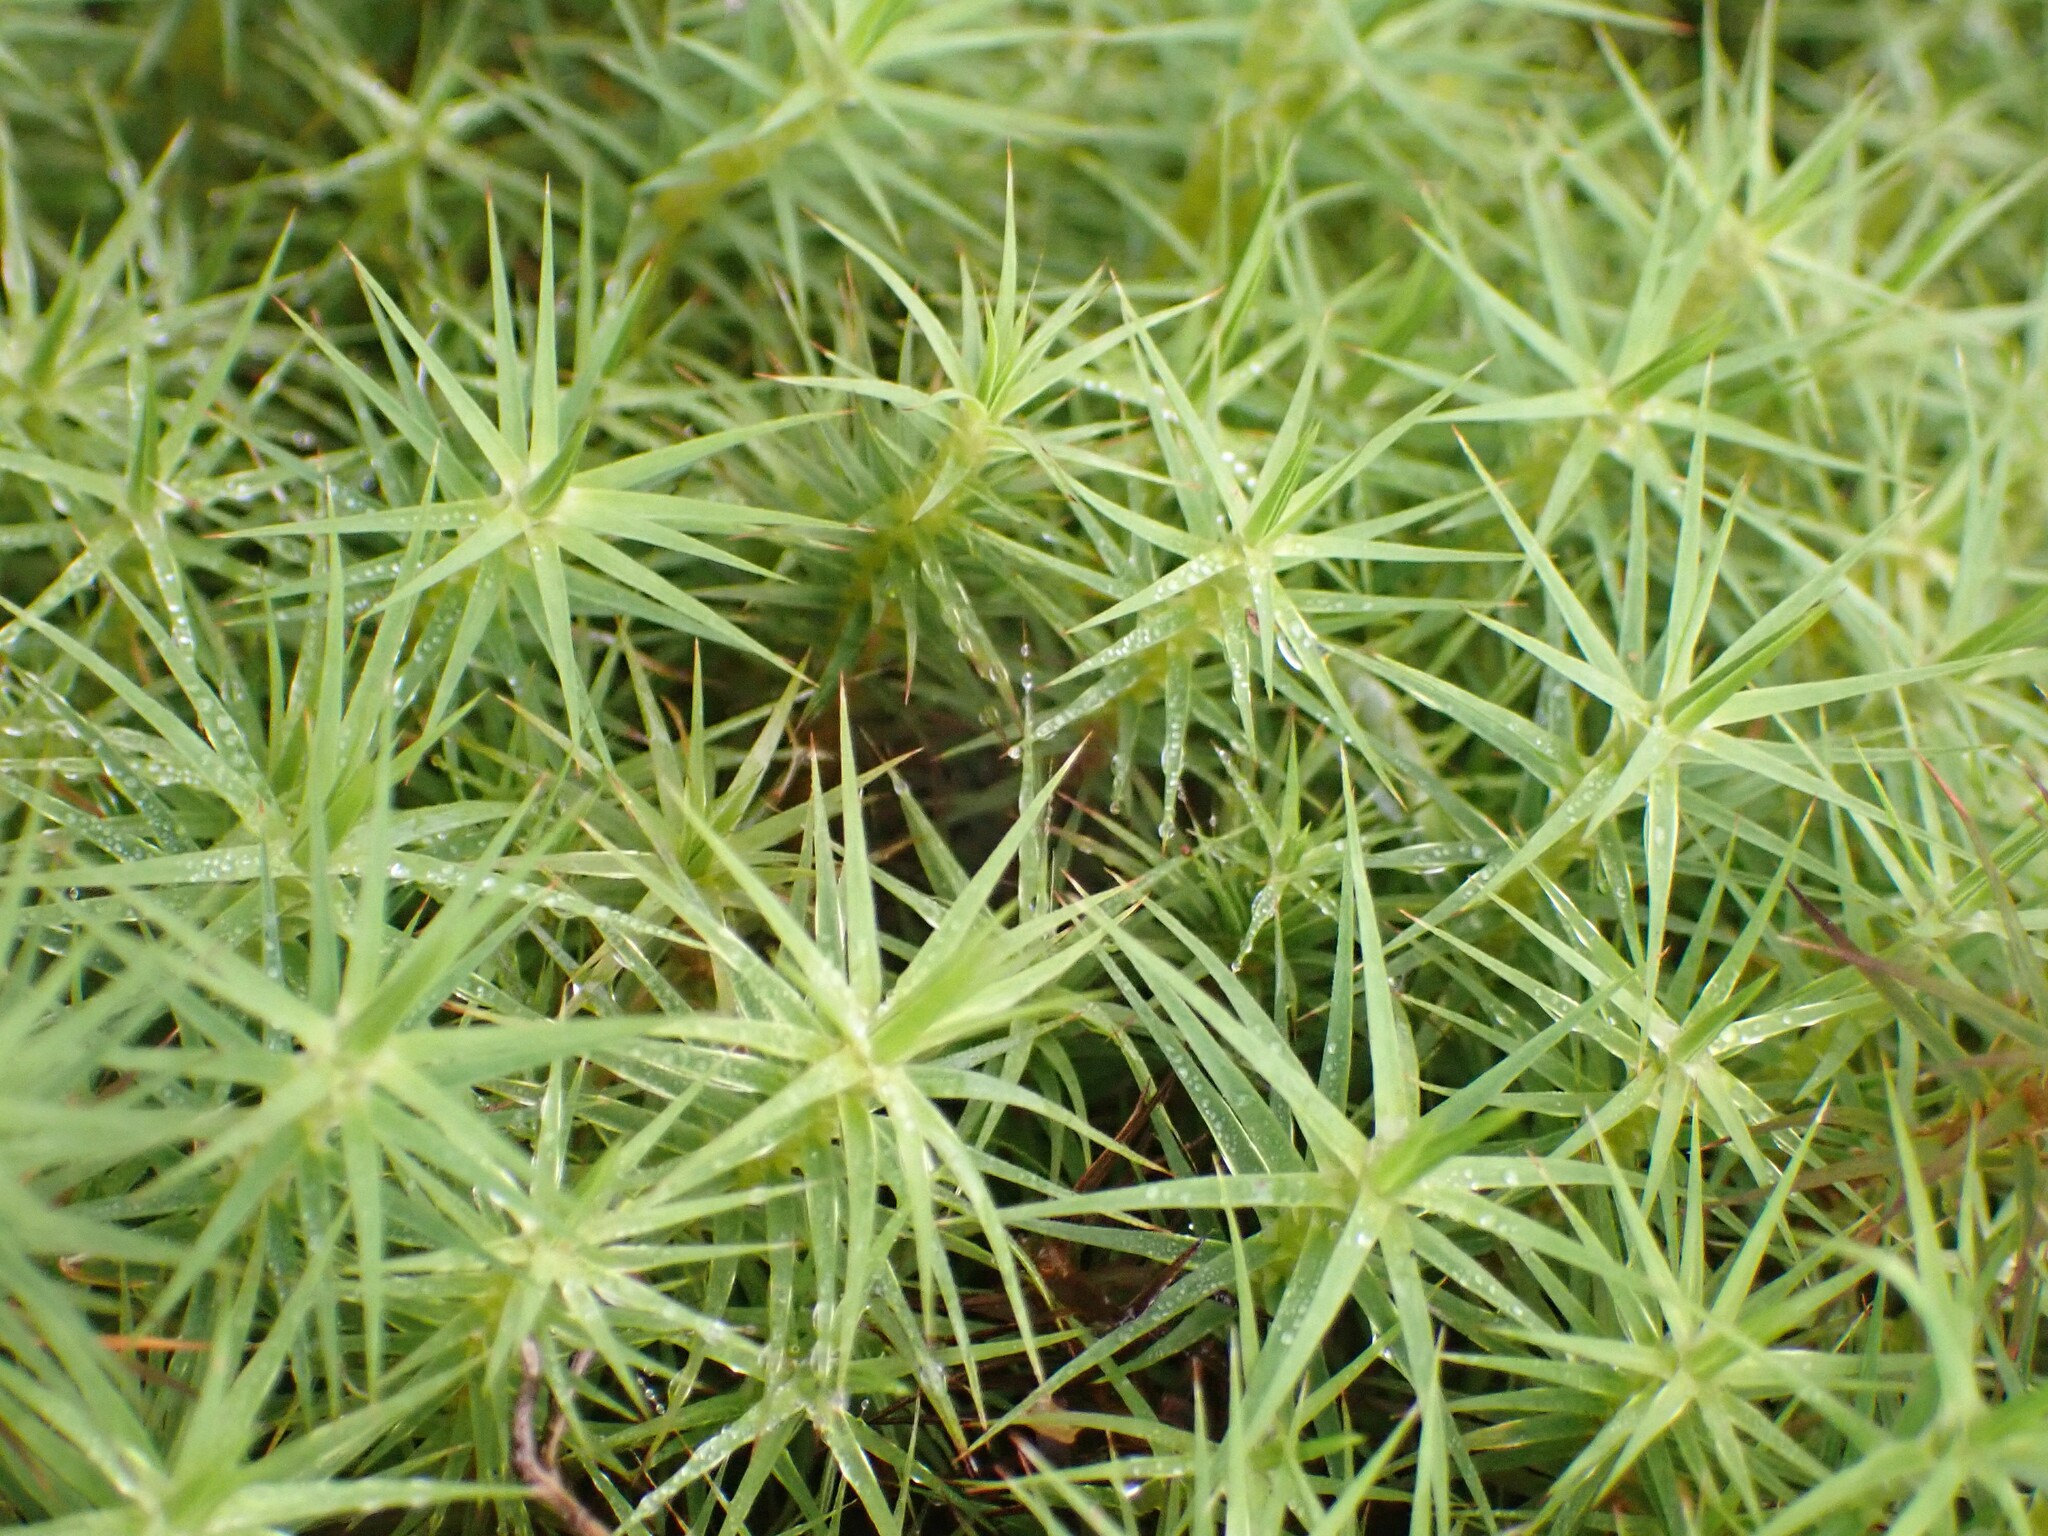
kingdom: Plantae
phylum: Bryophyta
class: Polytrichopsida
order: Polytrichales
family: Polytrichaceae
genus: Polytrichum
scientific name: Polytrichum commune
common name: Common haircap
